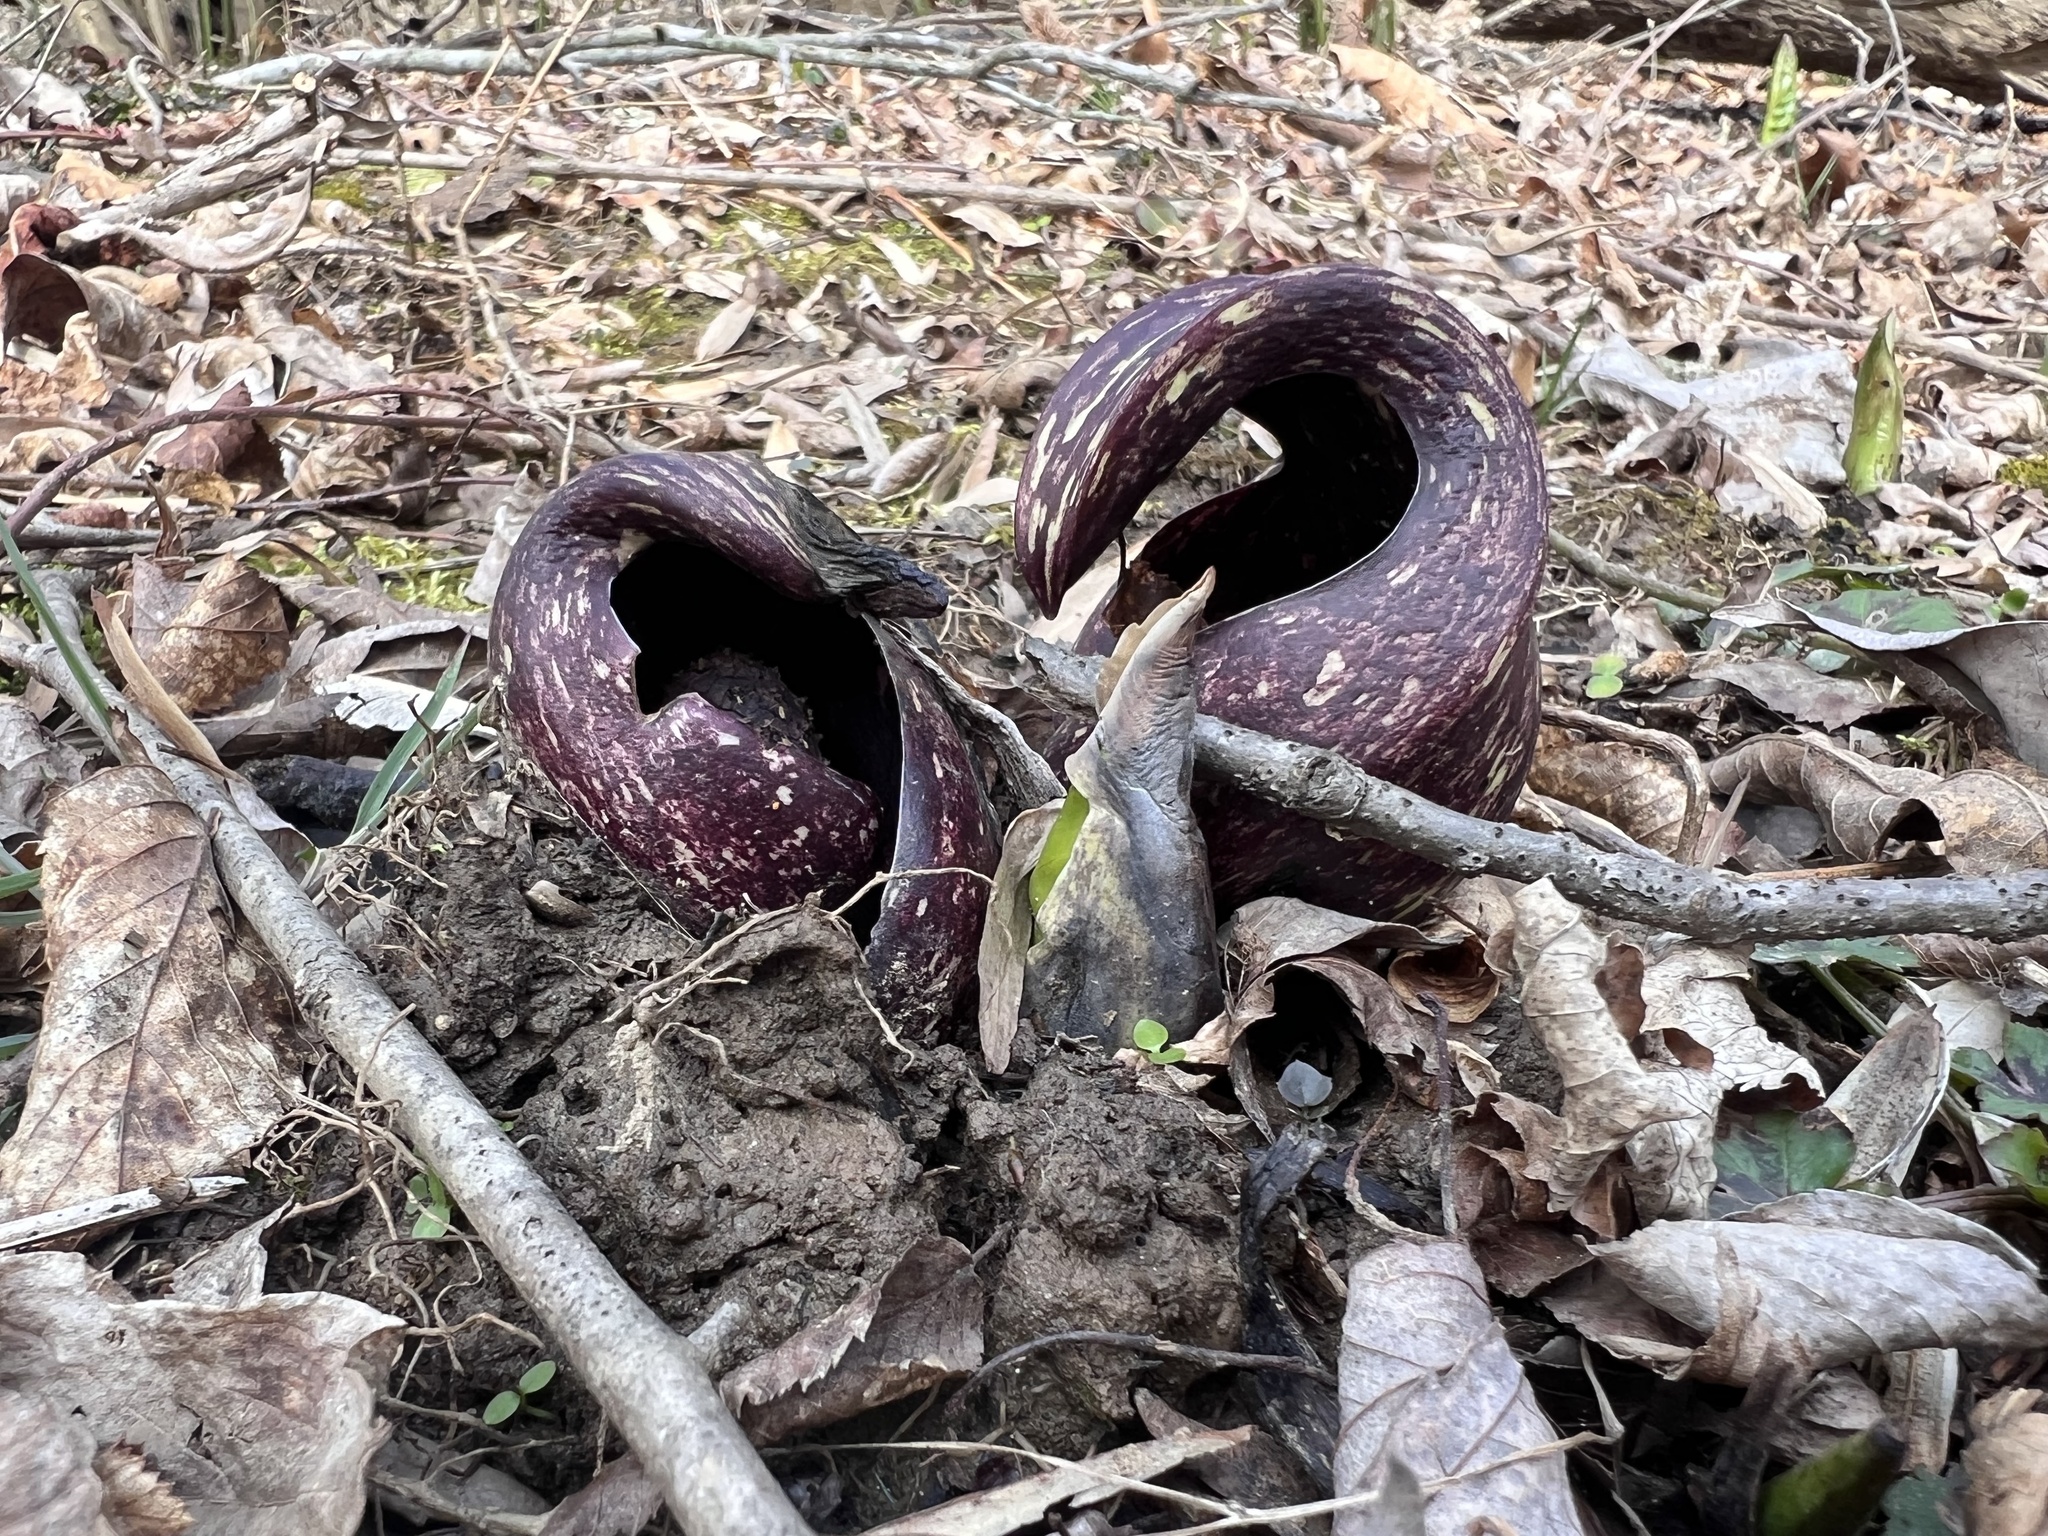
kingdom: Plantae
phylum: Tracheophyta
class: Liliopsida
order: Alismatales
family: Araceae
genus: Symplocarpus
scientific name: Symplocarpus foetidus
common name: Eastern skunk cabbage
